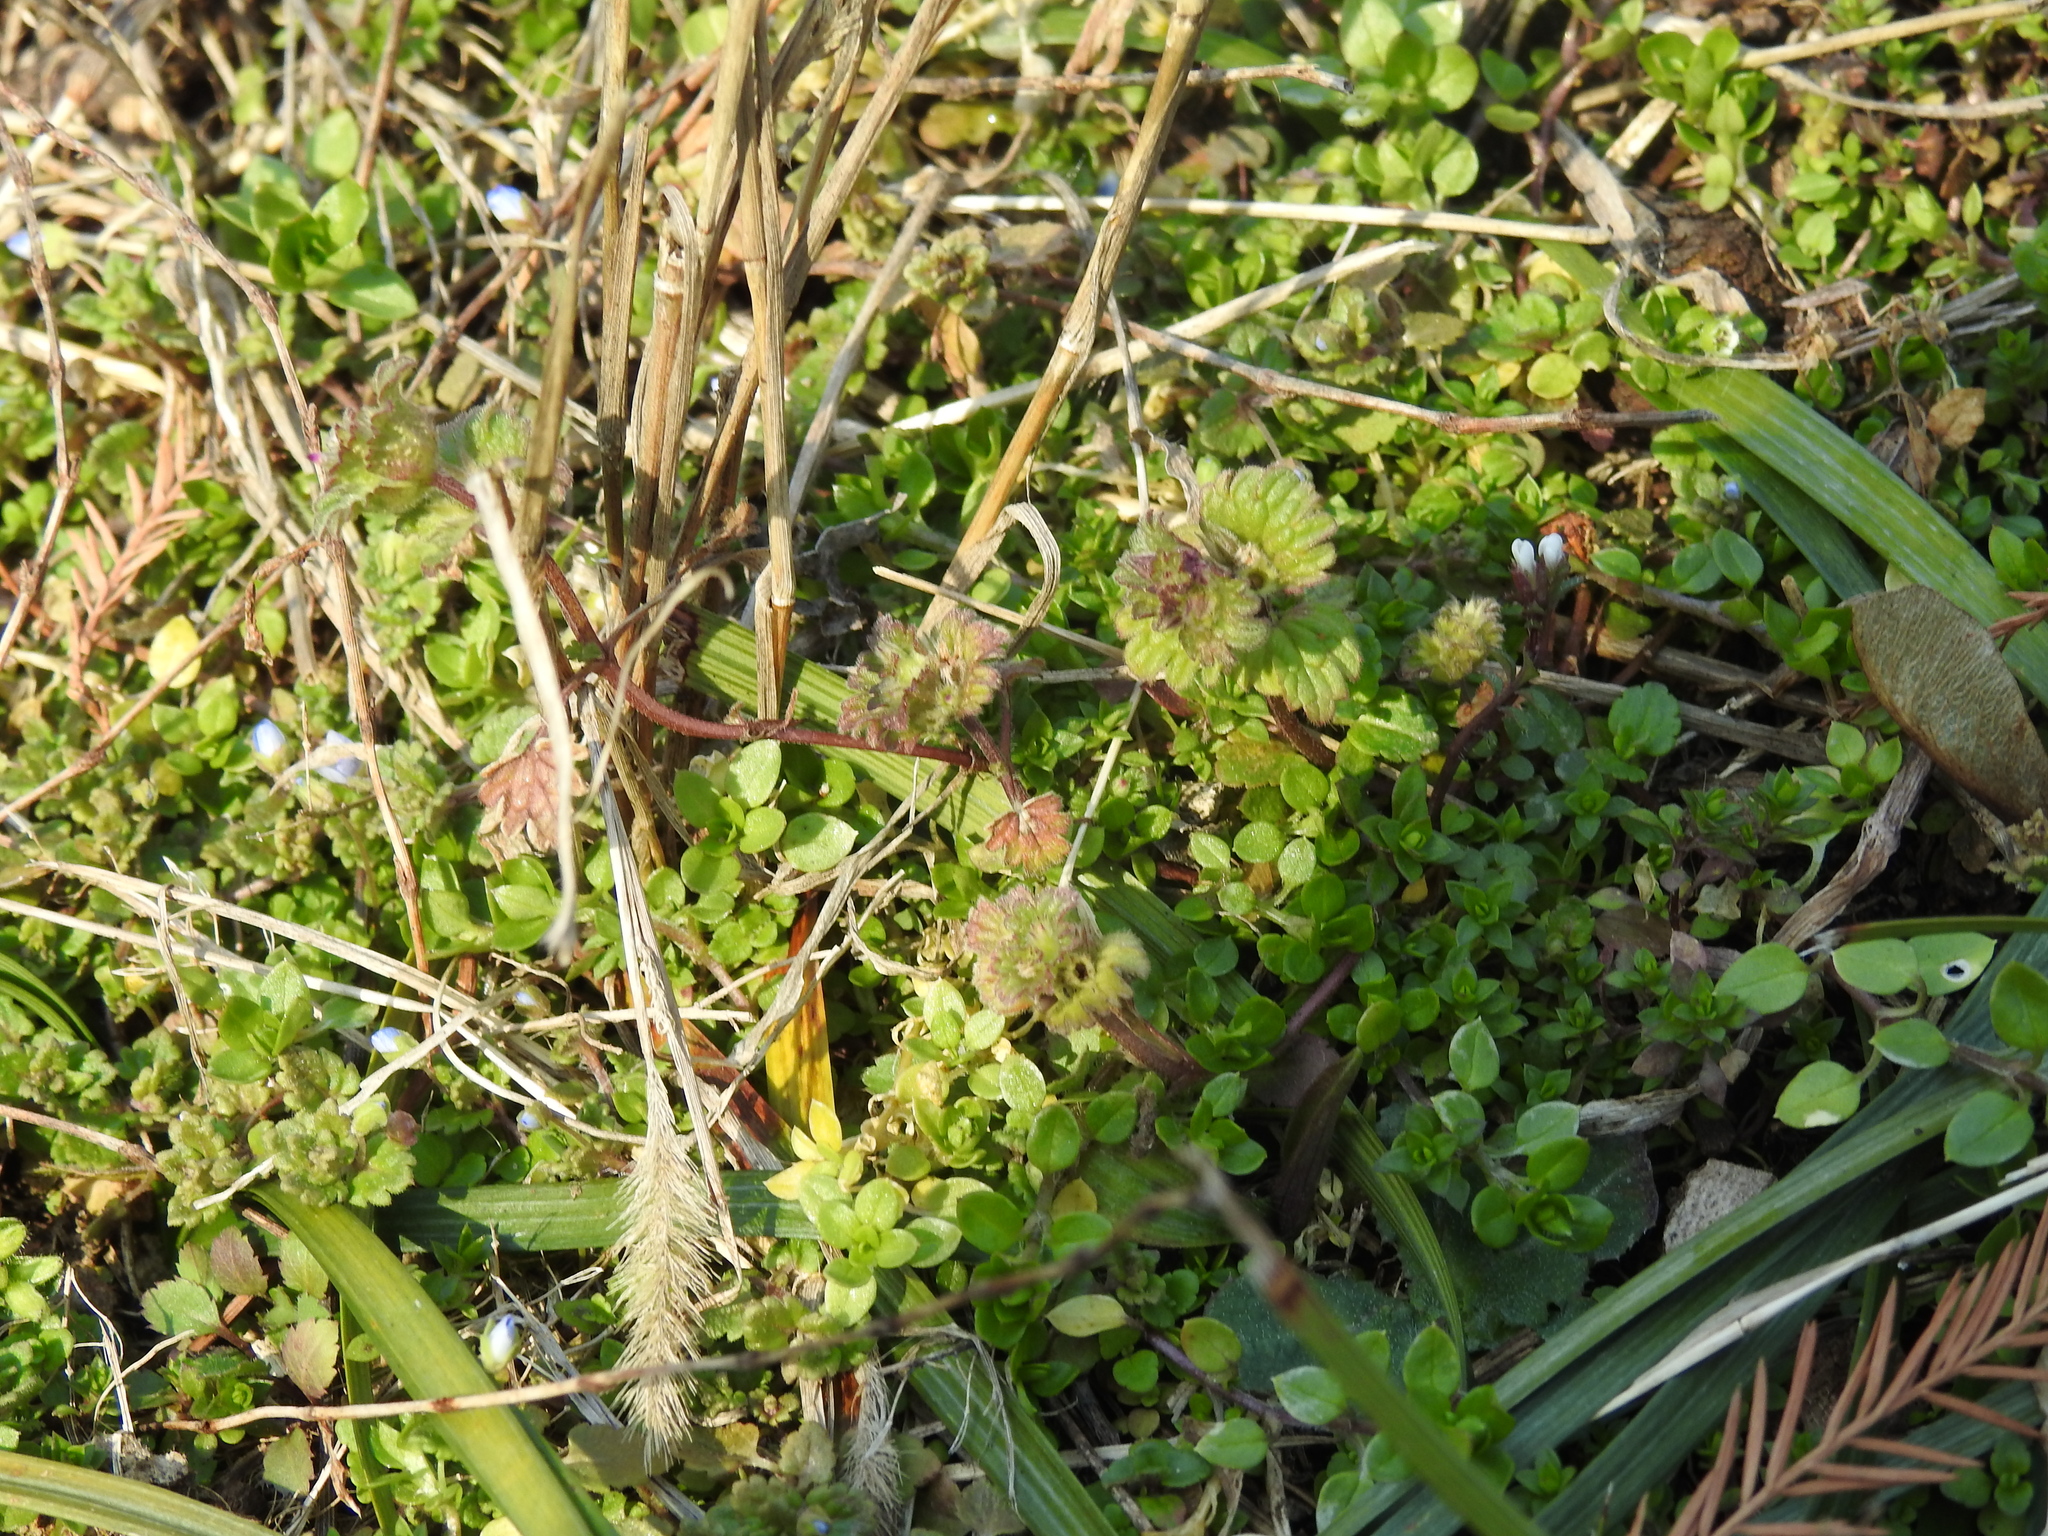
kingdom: Plantae
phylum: Tracheophyta
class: Magnoliopsida
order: Lamiales
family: Lamiaceae
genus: Lamium
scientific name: Lamium amplexicaule
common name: Henbit dead-nettle
